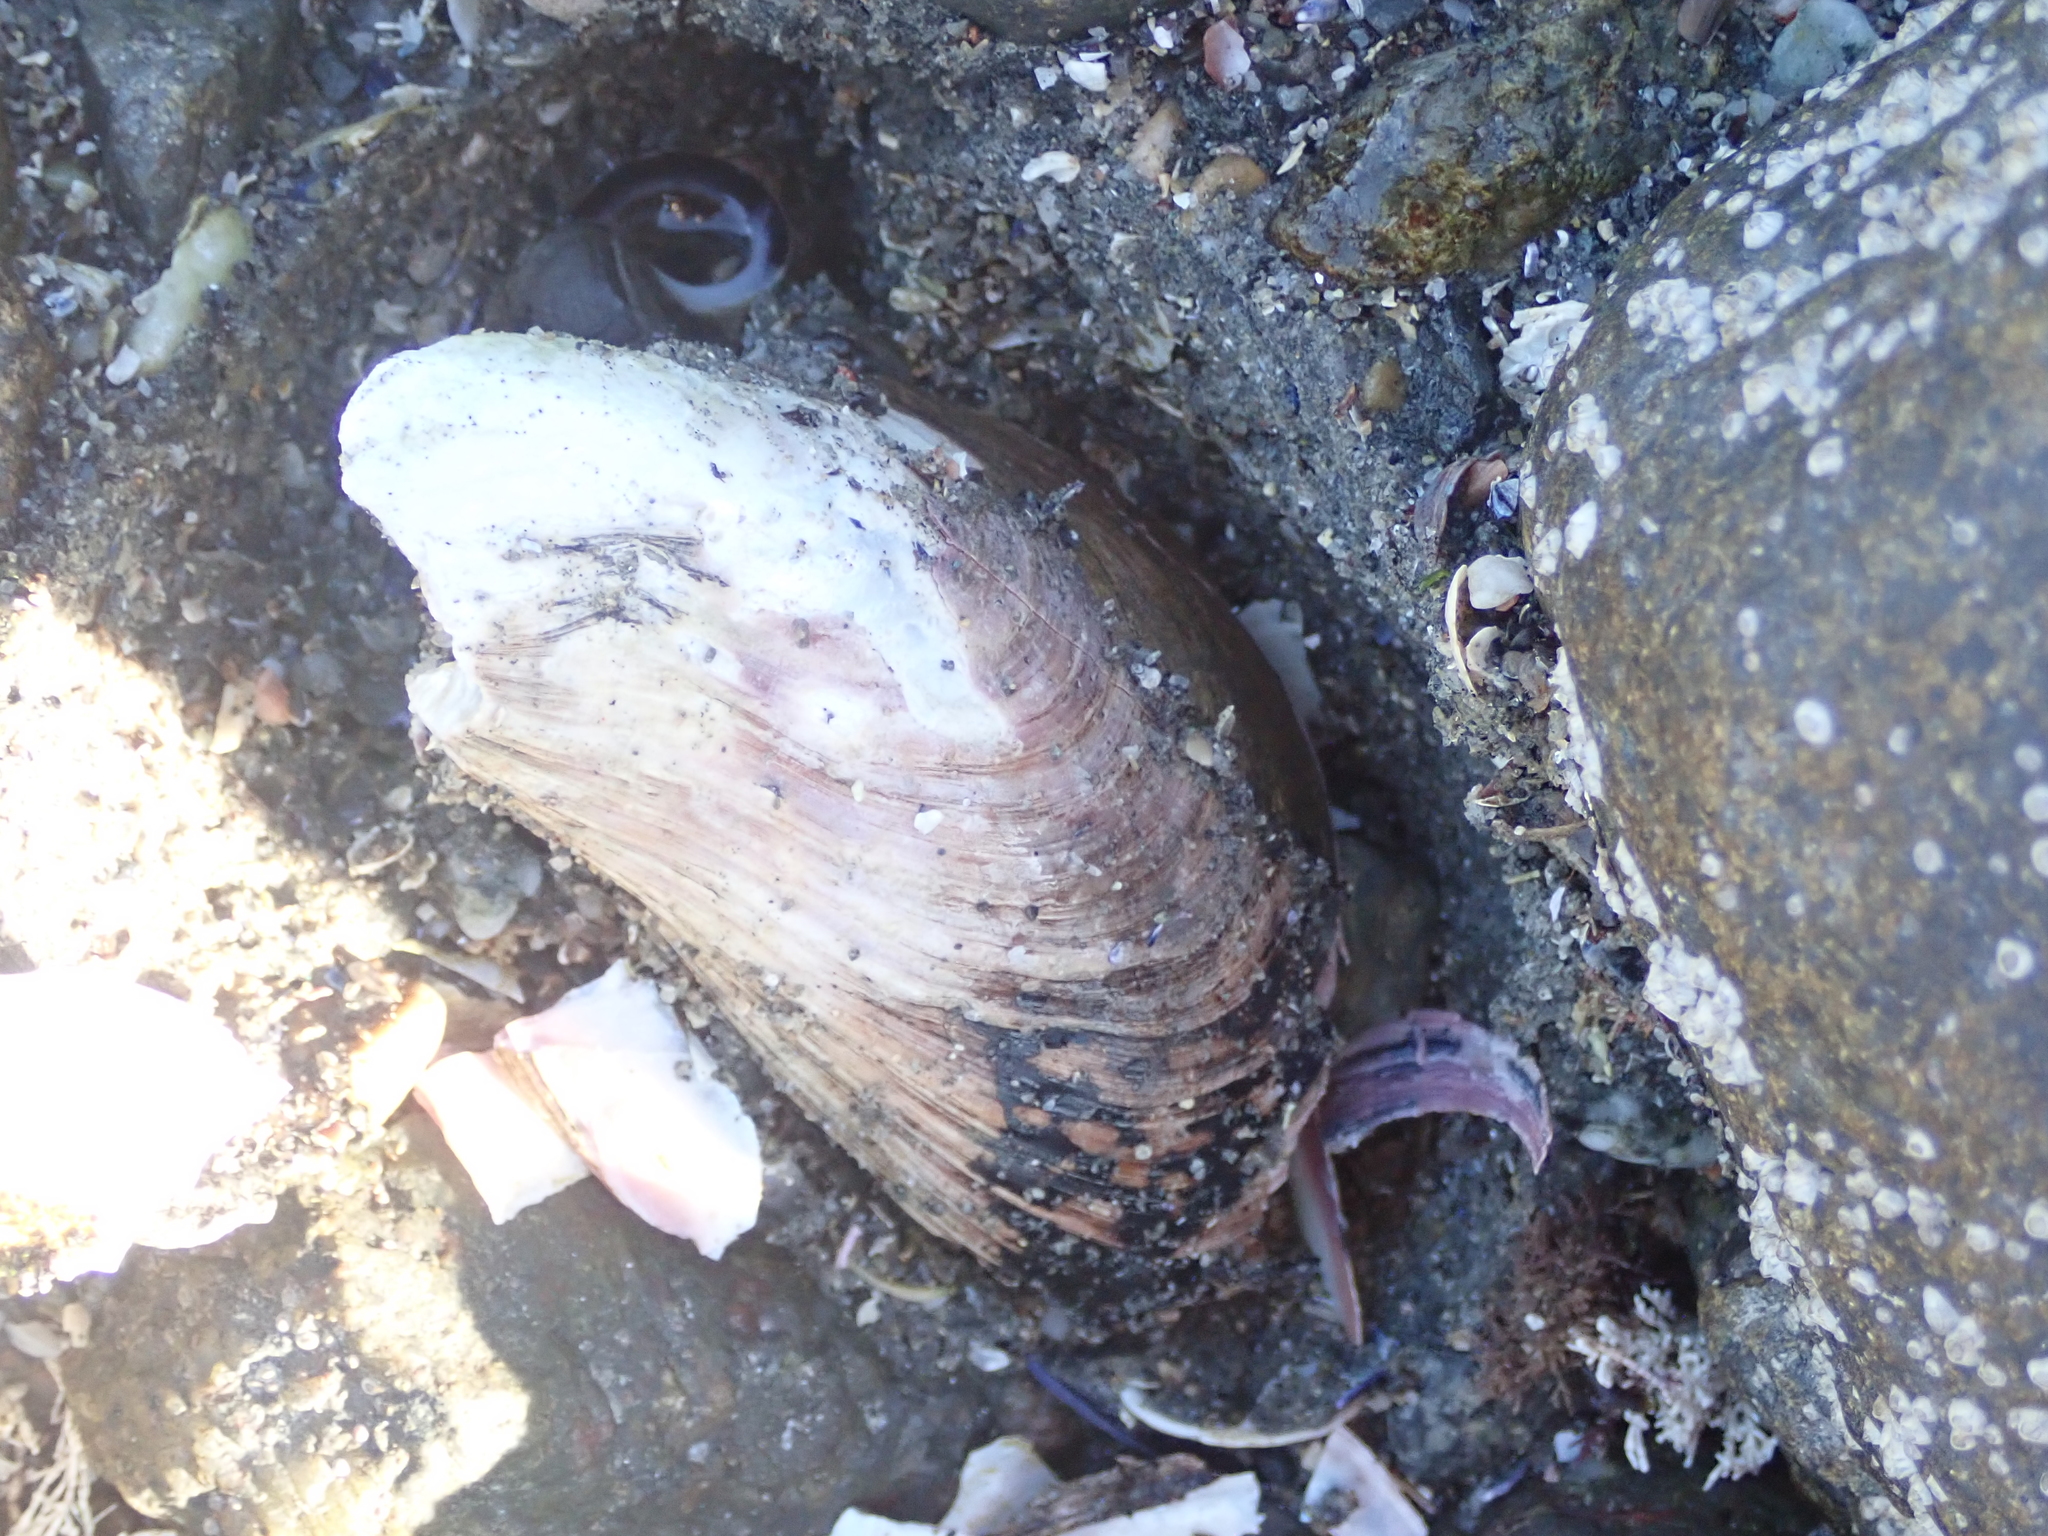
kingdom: Animalia
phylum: Mollusca
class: Bivalvia
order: Mytilida
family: Mytilidae
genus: Modiolus
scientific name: Modiolus modiolus
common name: Horse-mussel
